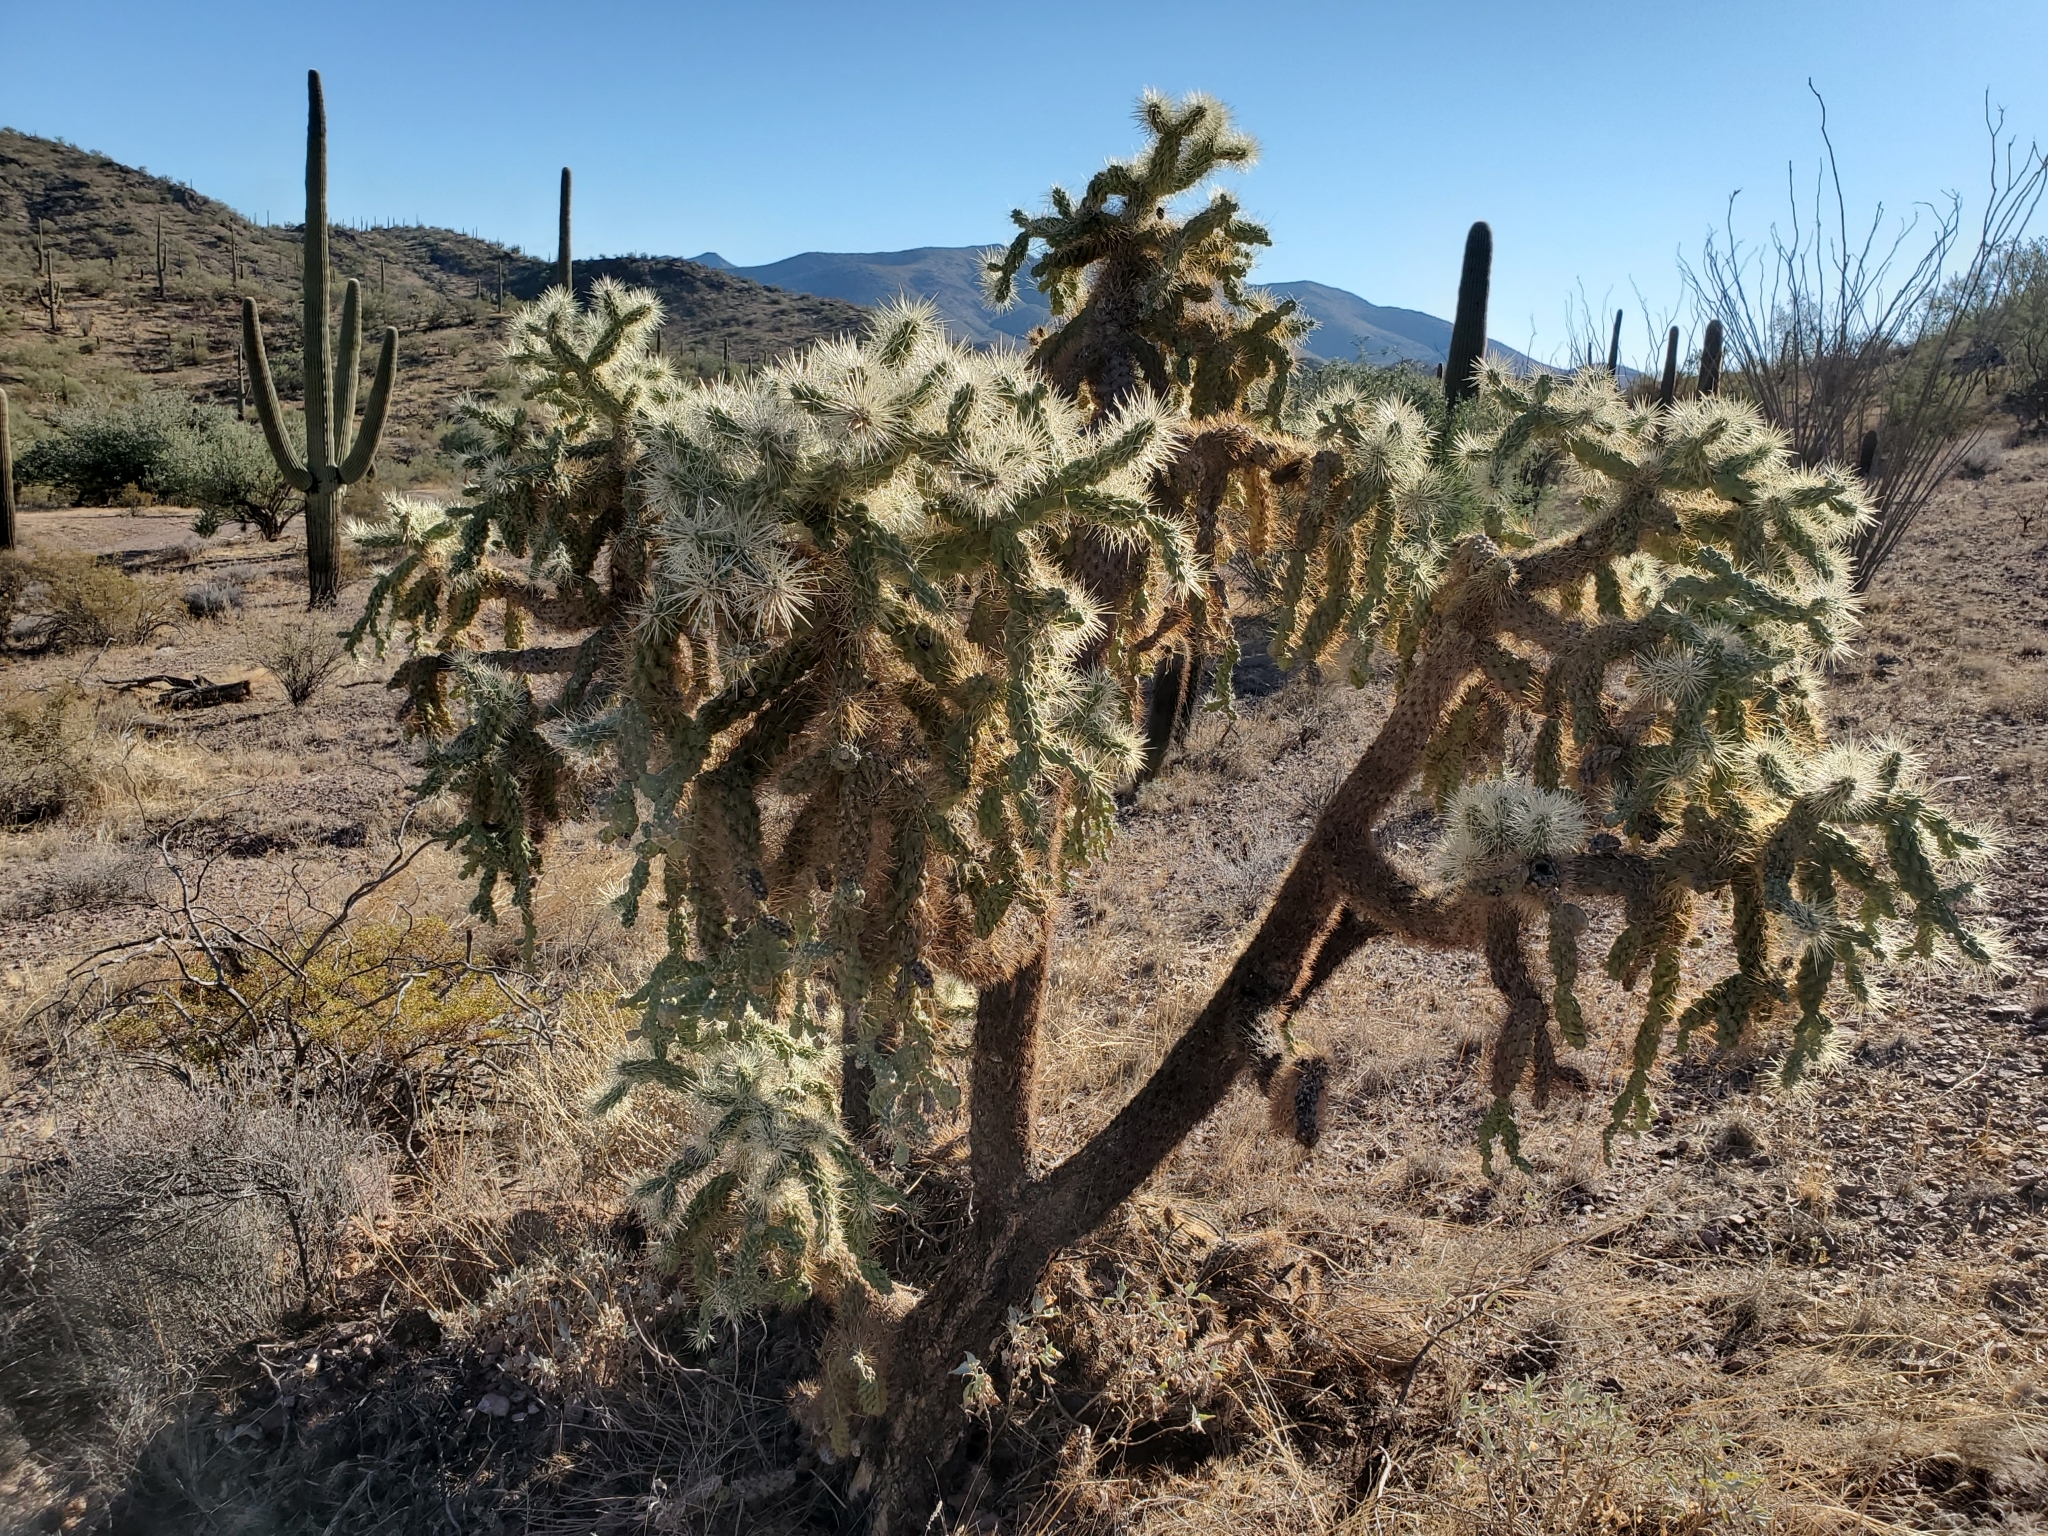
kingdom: Plantae
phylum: Tracheophyta
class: Magnoliopsida
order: Caryophyllales
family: Cactaceae
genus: Cylindropuntia
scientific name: Cylindropuntia fulgida
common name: Jumping cholla
